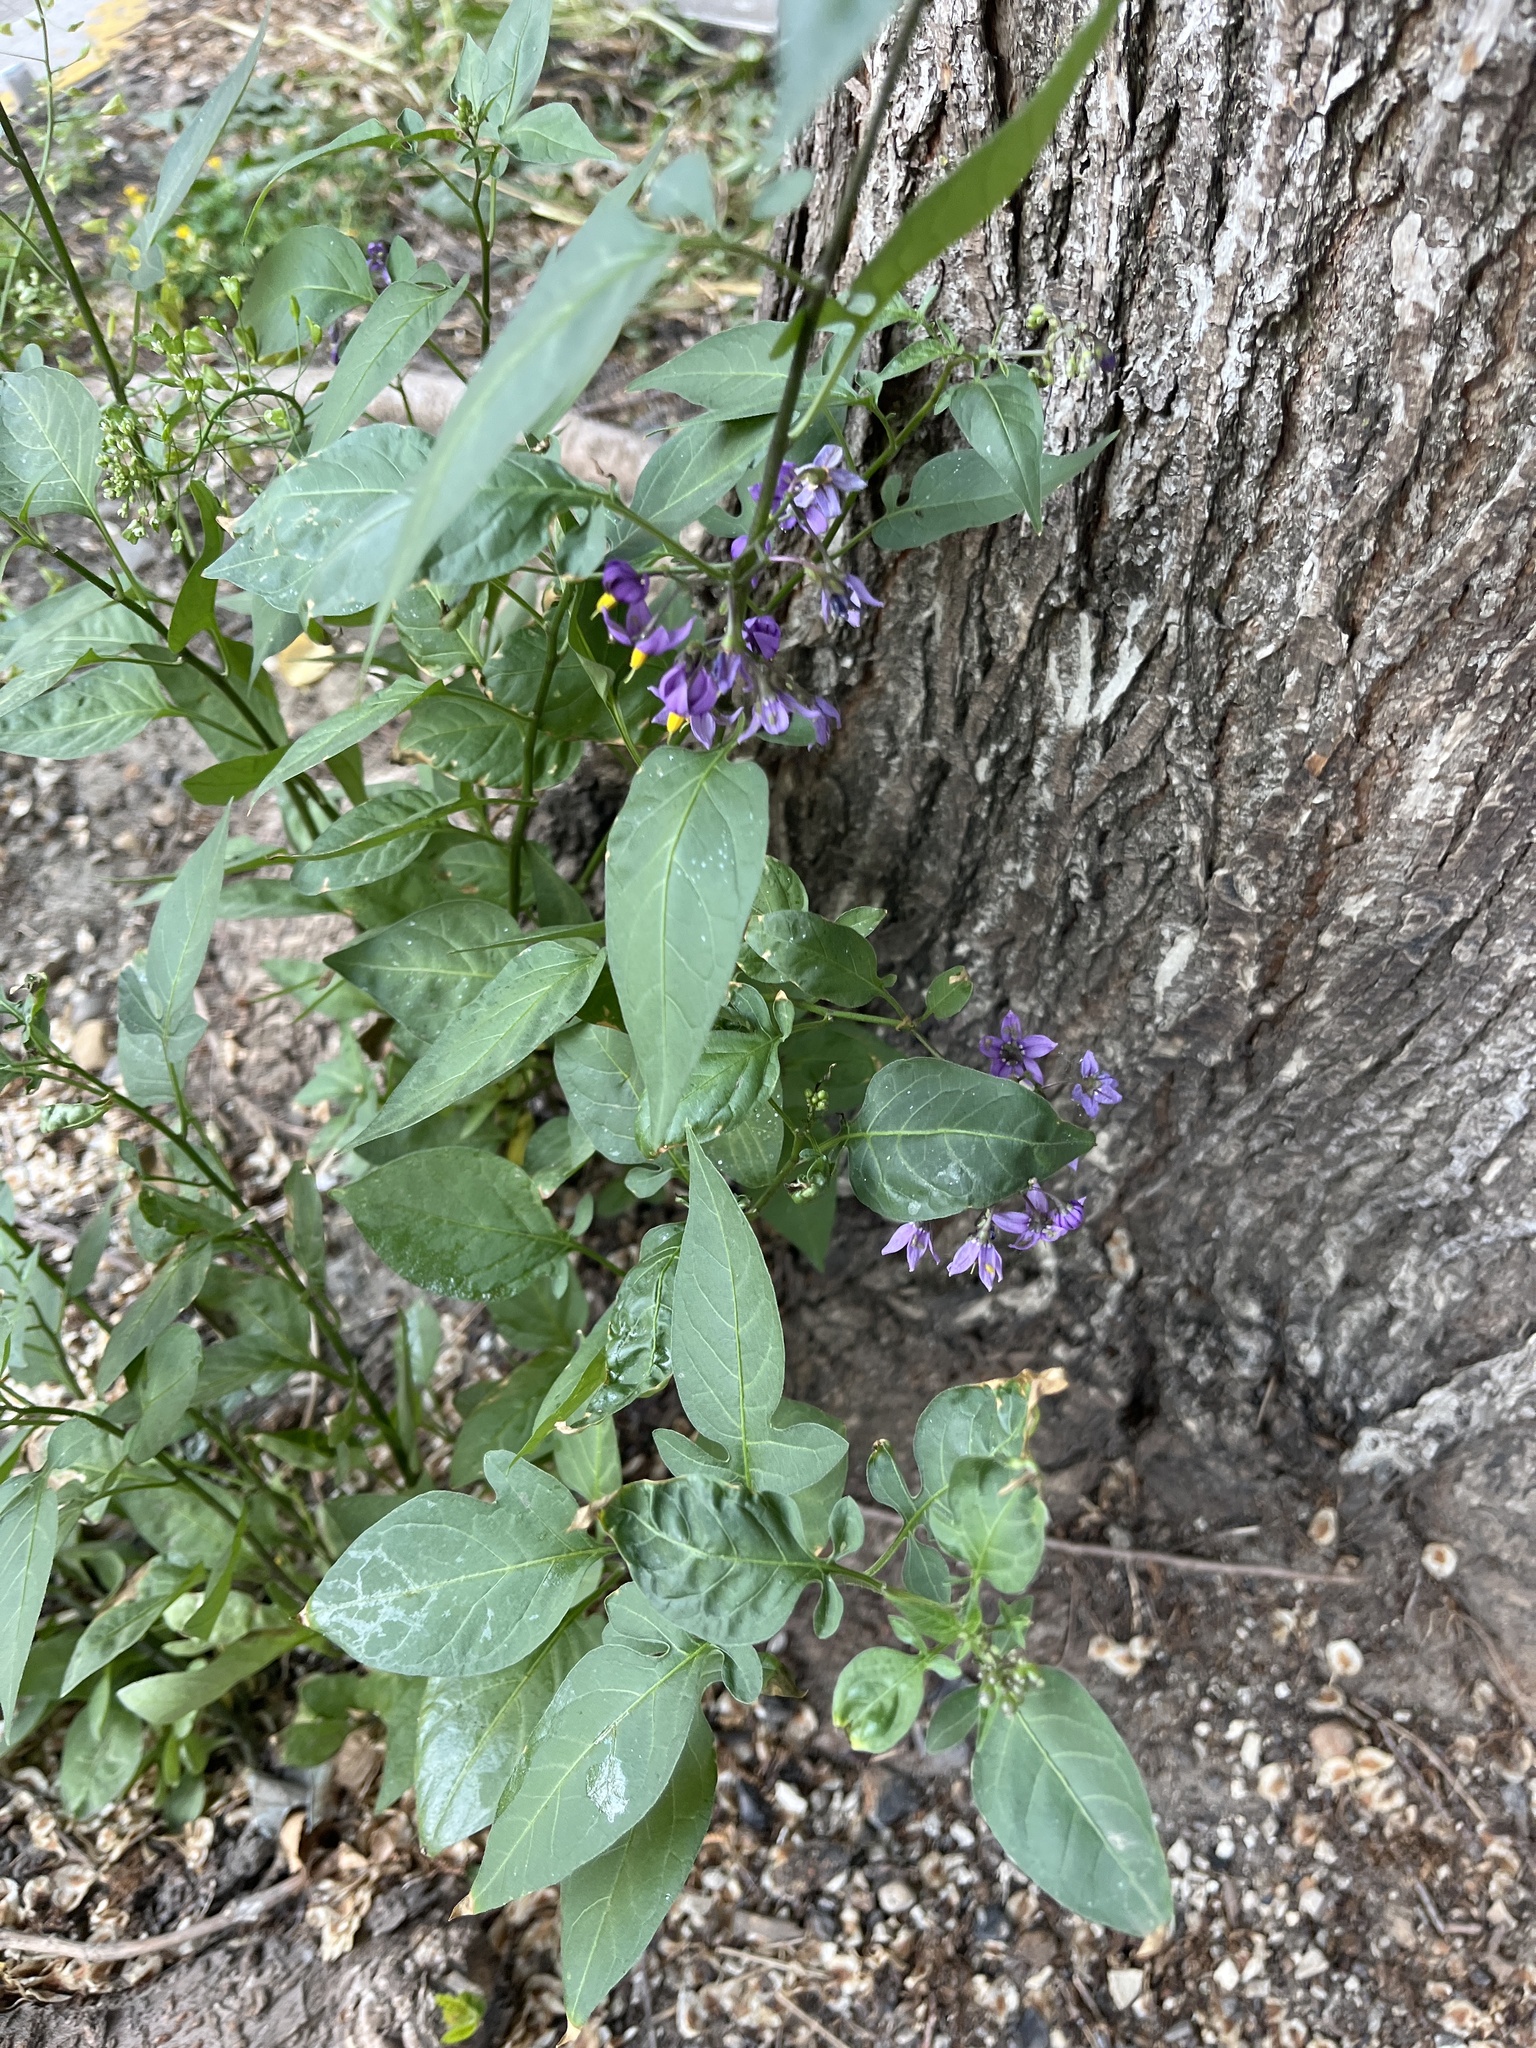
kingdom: Plantae
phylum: Tracheophyta
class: Magnoliopsida
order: Solanales
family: Solanaceae
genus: Solanum
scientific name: Solanum dulcamara
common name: Climbing nightshade
